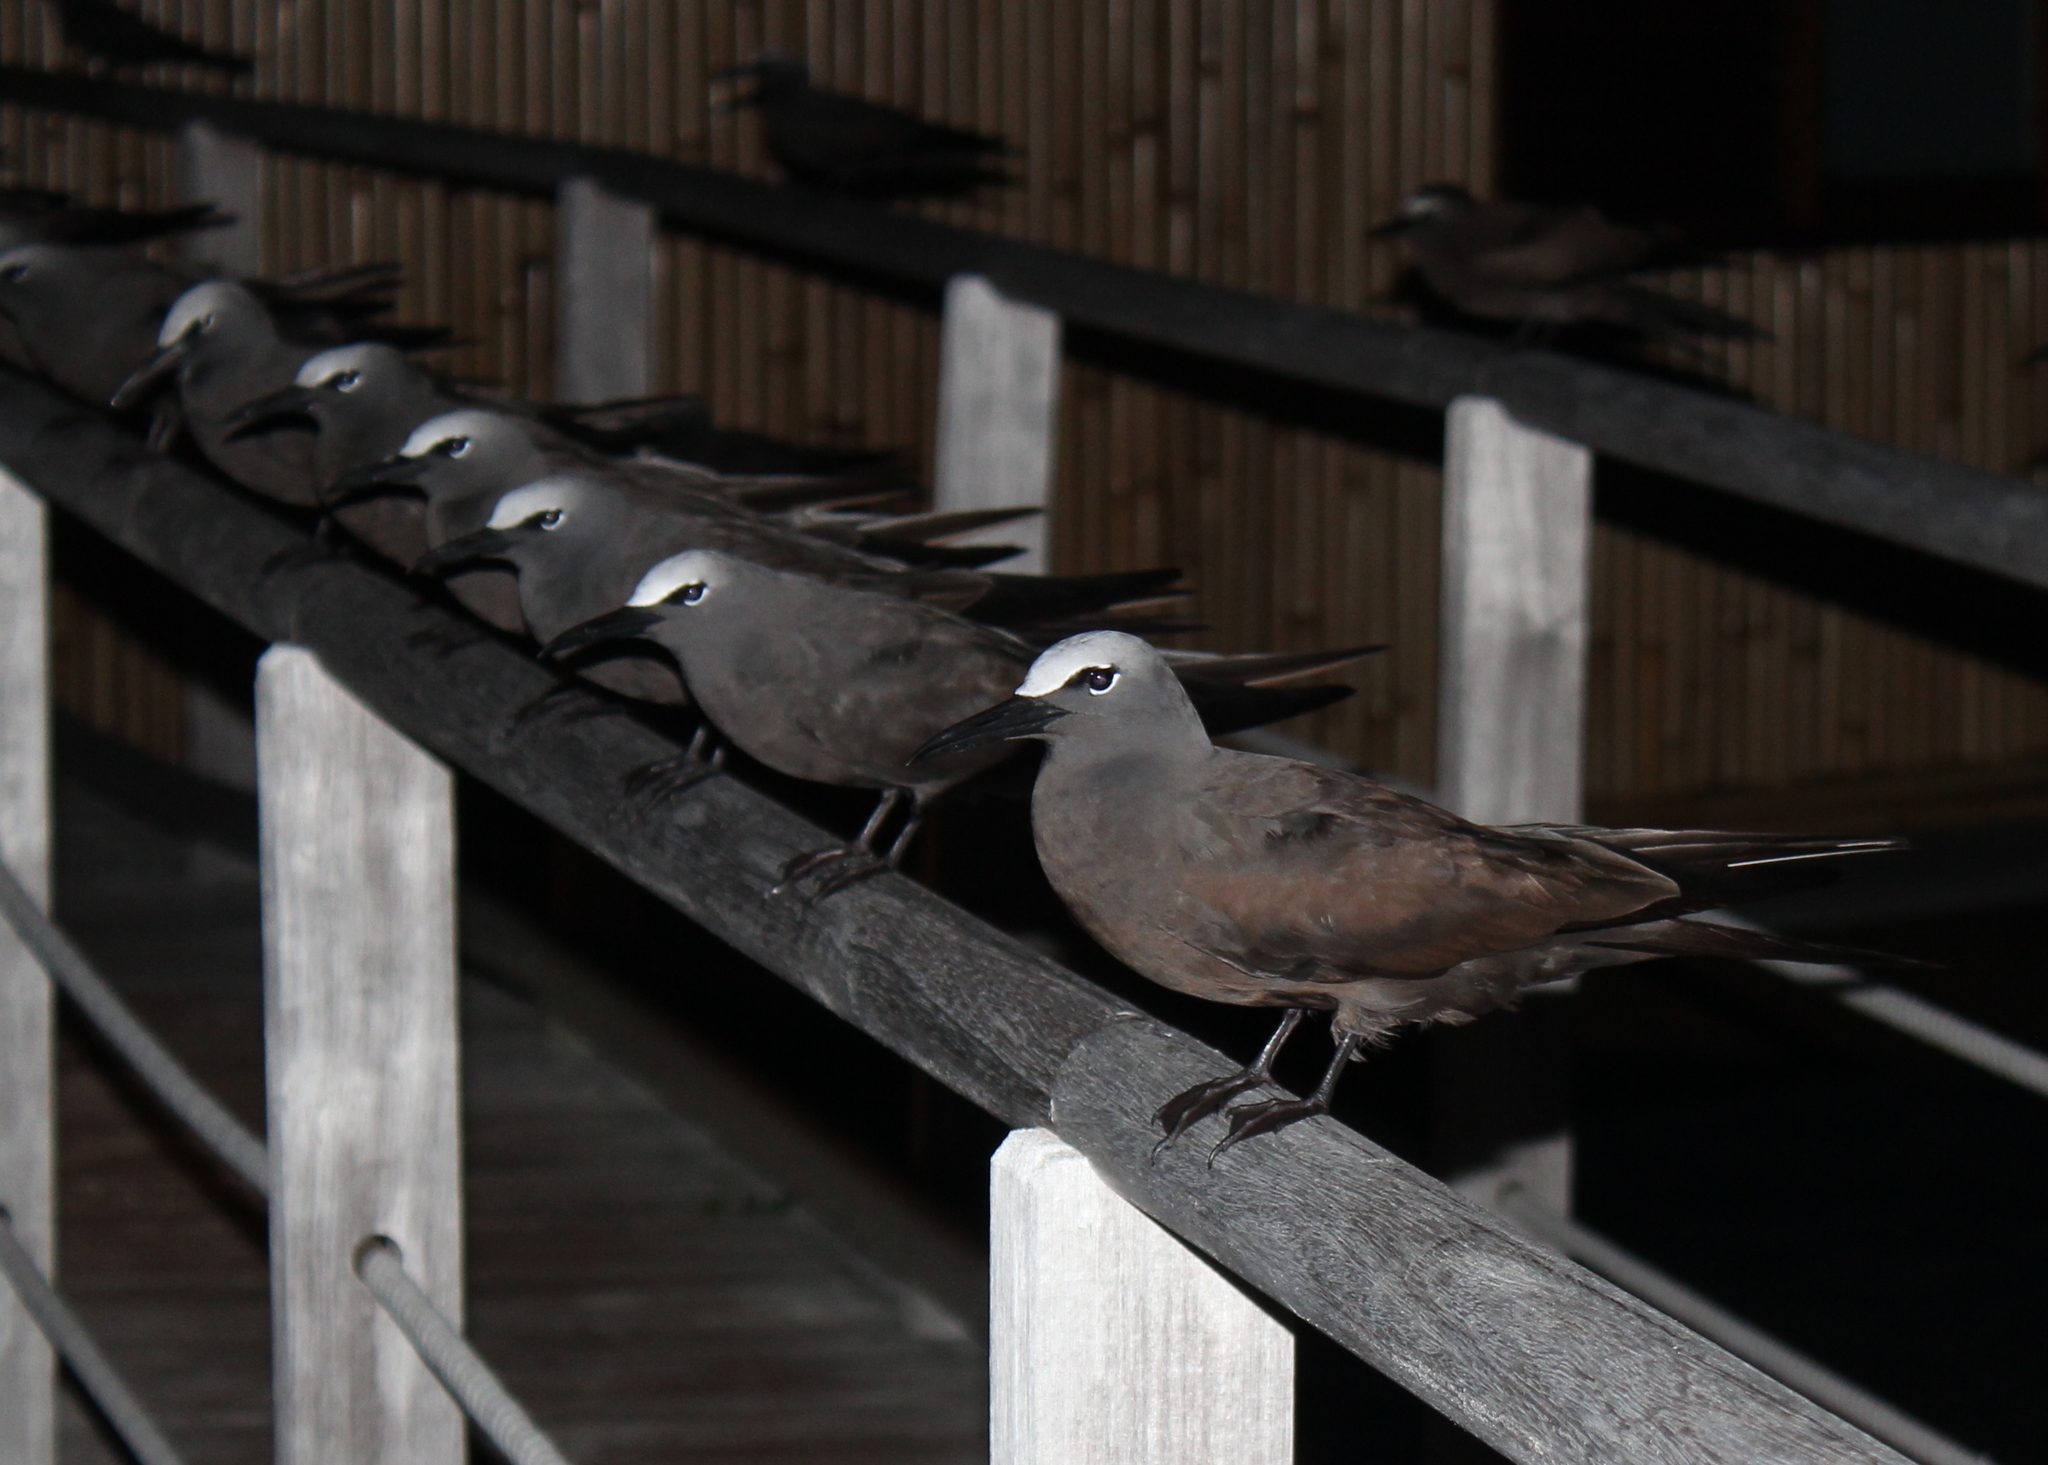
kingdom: Animalia
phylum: Chordata
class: Aves
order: Charadriiformes
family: Laridae
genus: Anous
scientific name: Anous stolidus
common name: Brown noddy
